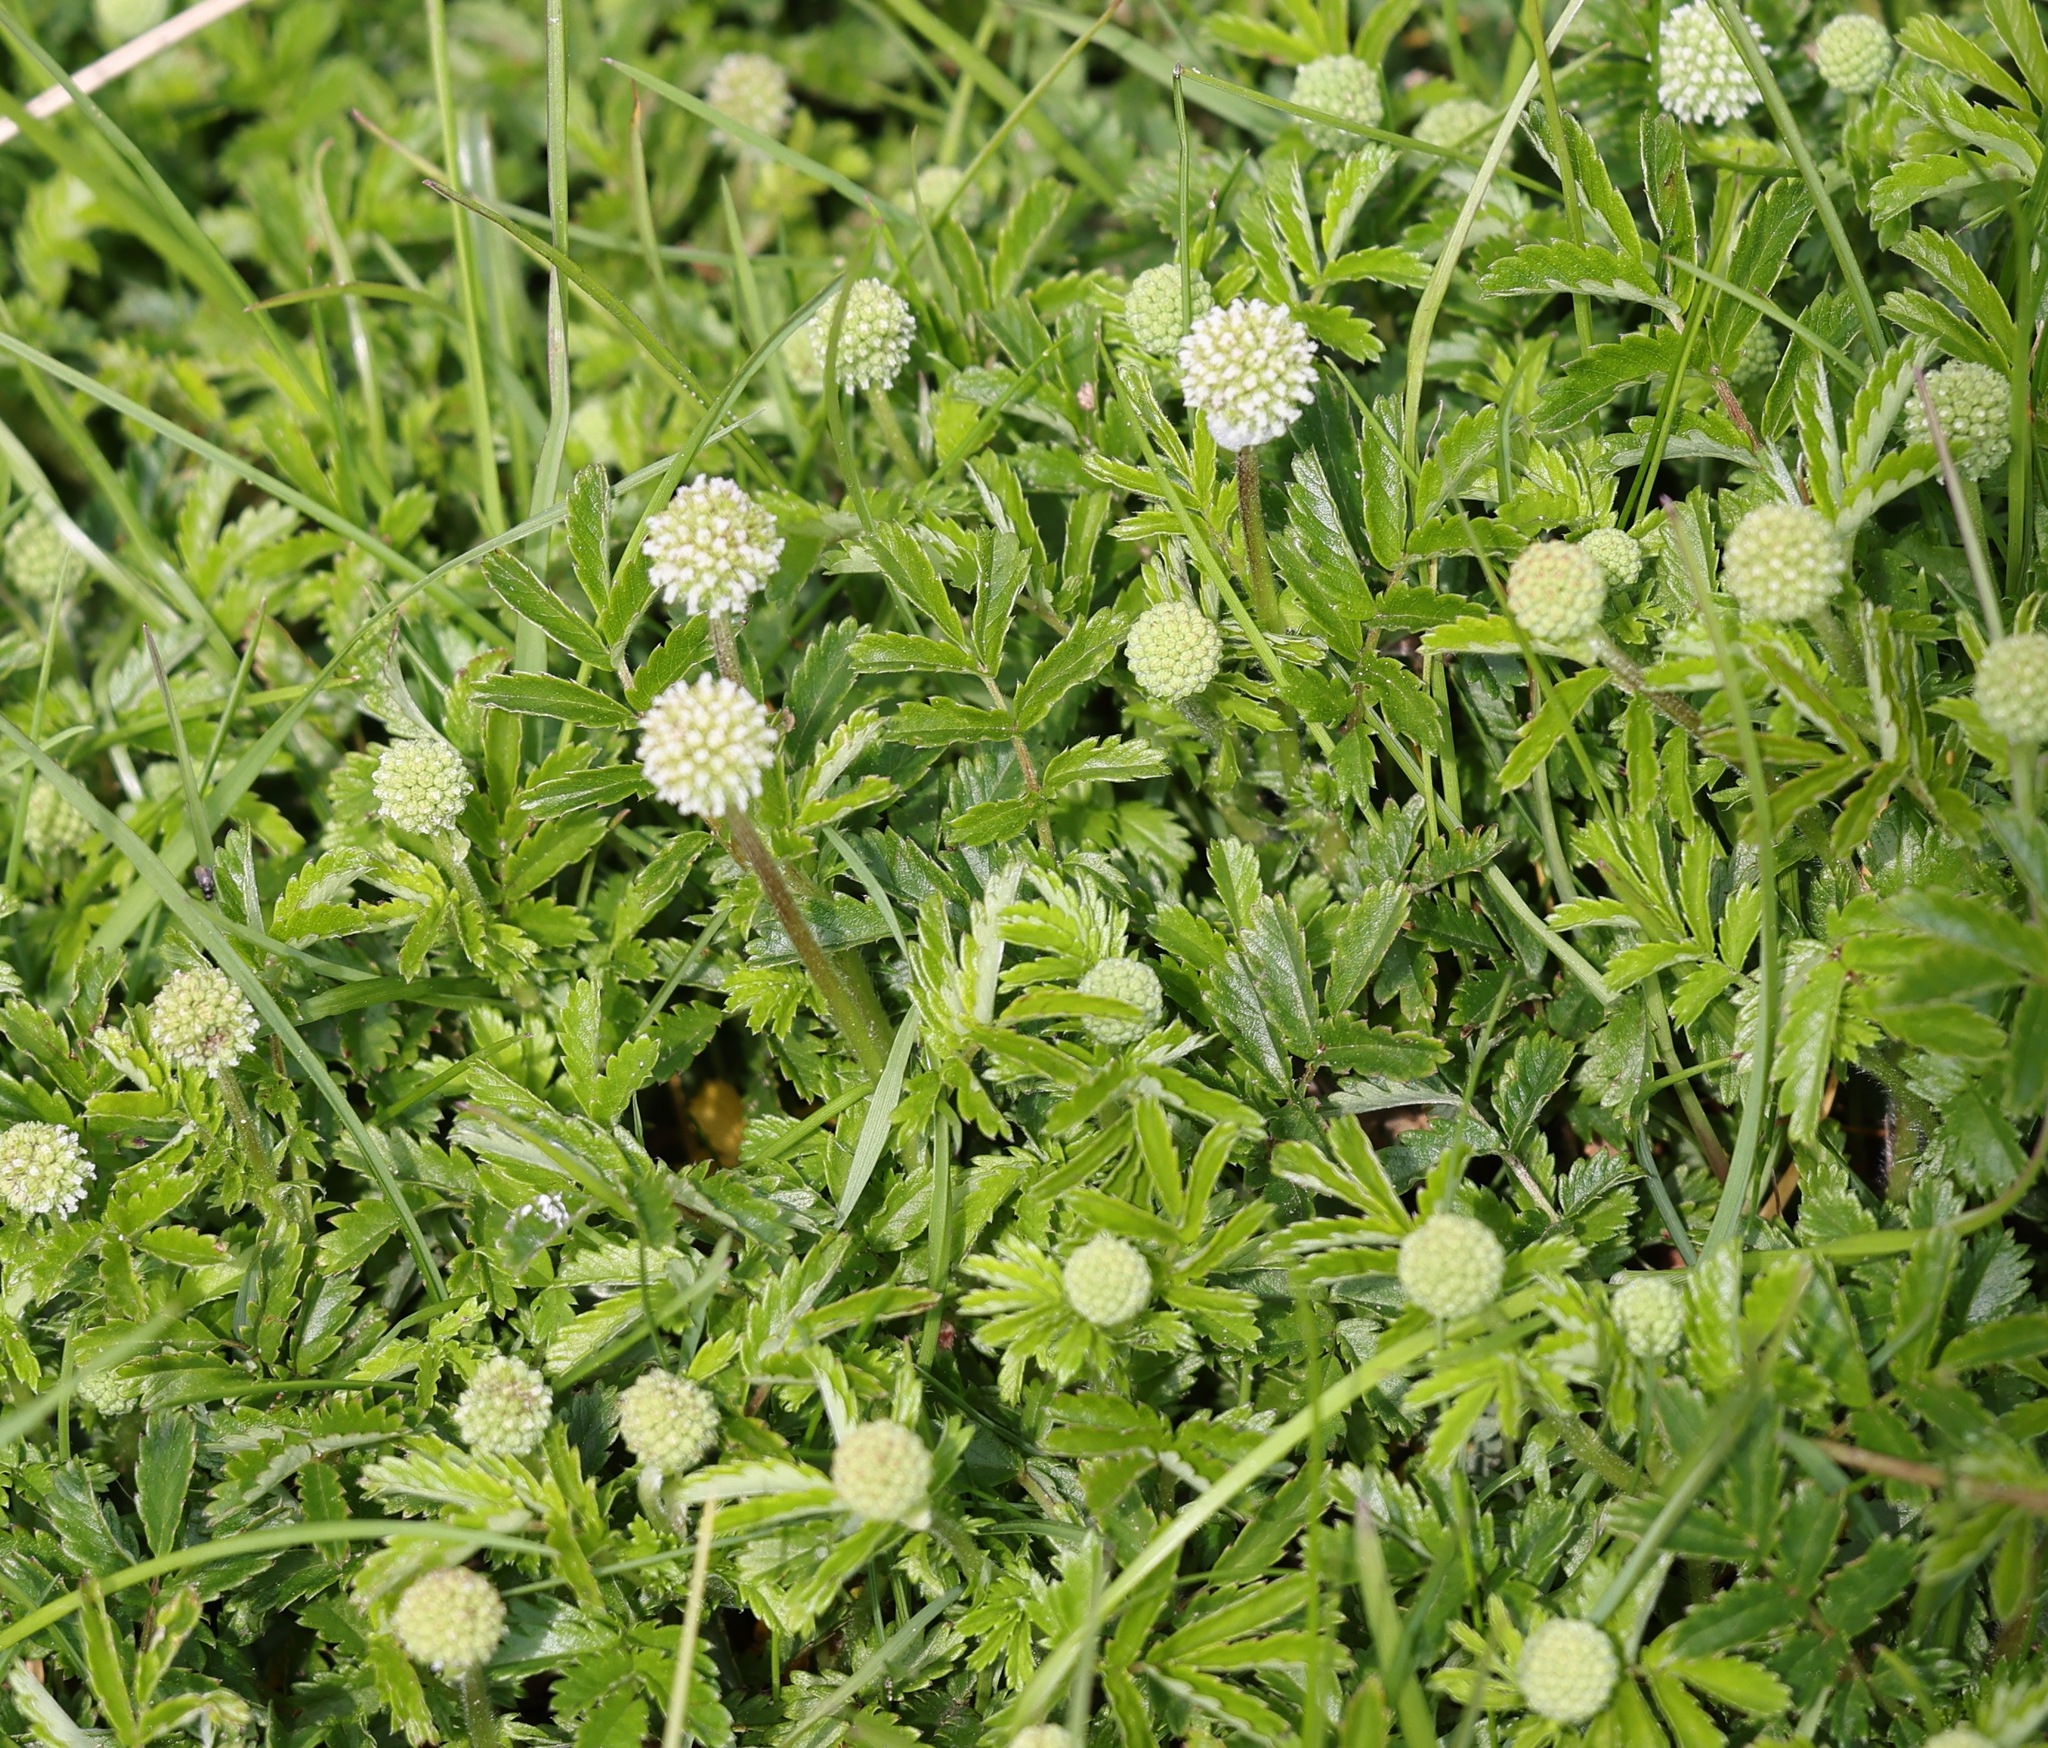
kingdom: Plantae
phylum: Tracheophyta
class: Magnoliopsida
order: Rosales
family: Rosaceae
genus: Acaena
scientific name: Acaena novae-zelandiae
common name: Pirri-pirri-bur
